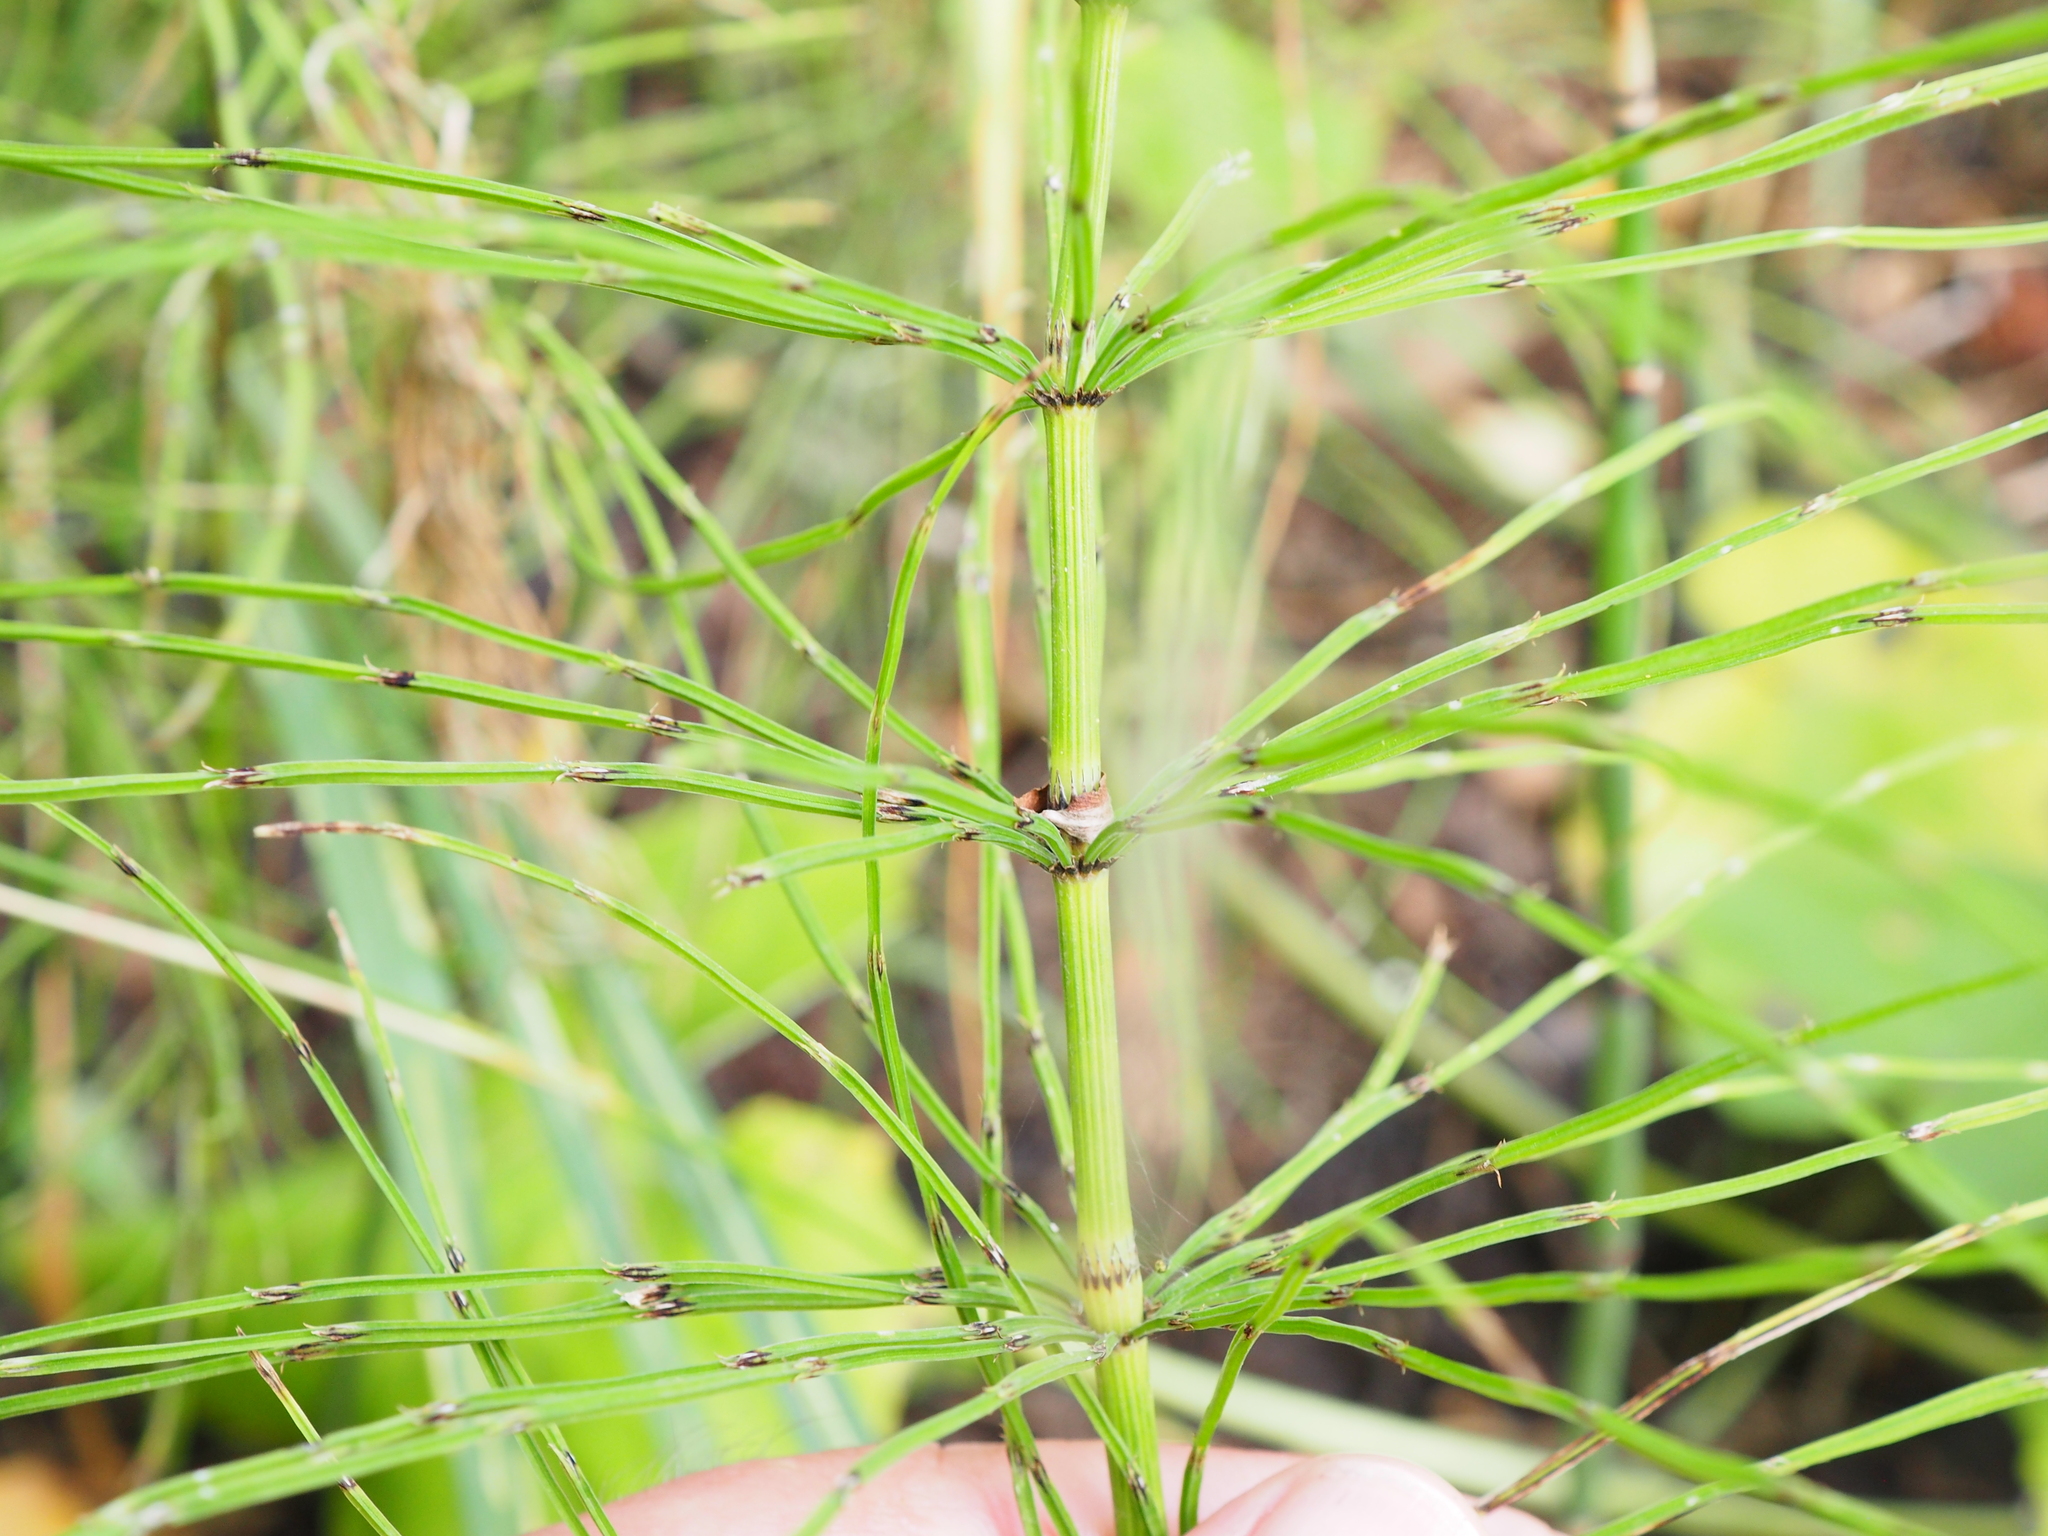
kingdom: Plantae
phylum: Tracheophyta
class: Polypodiopsida
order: Equisetales
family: Equisetaceae
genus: Equisetum
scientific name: Equisetum arvense
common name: Field horsetail
